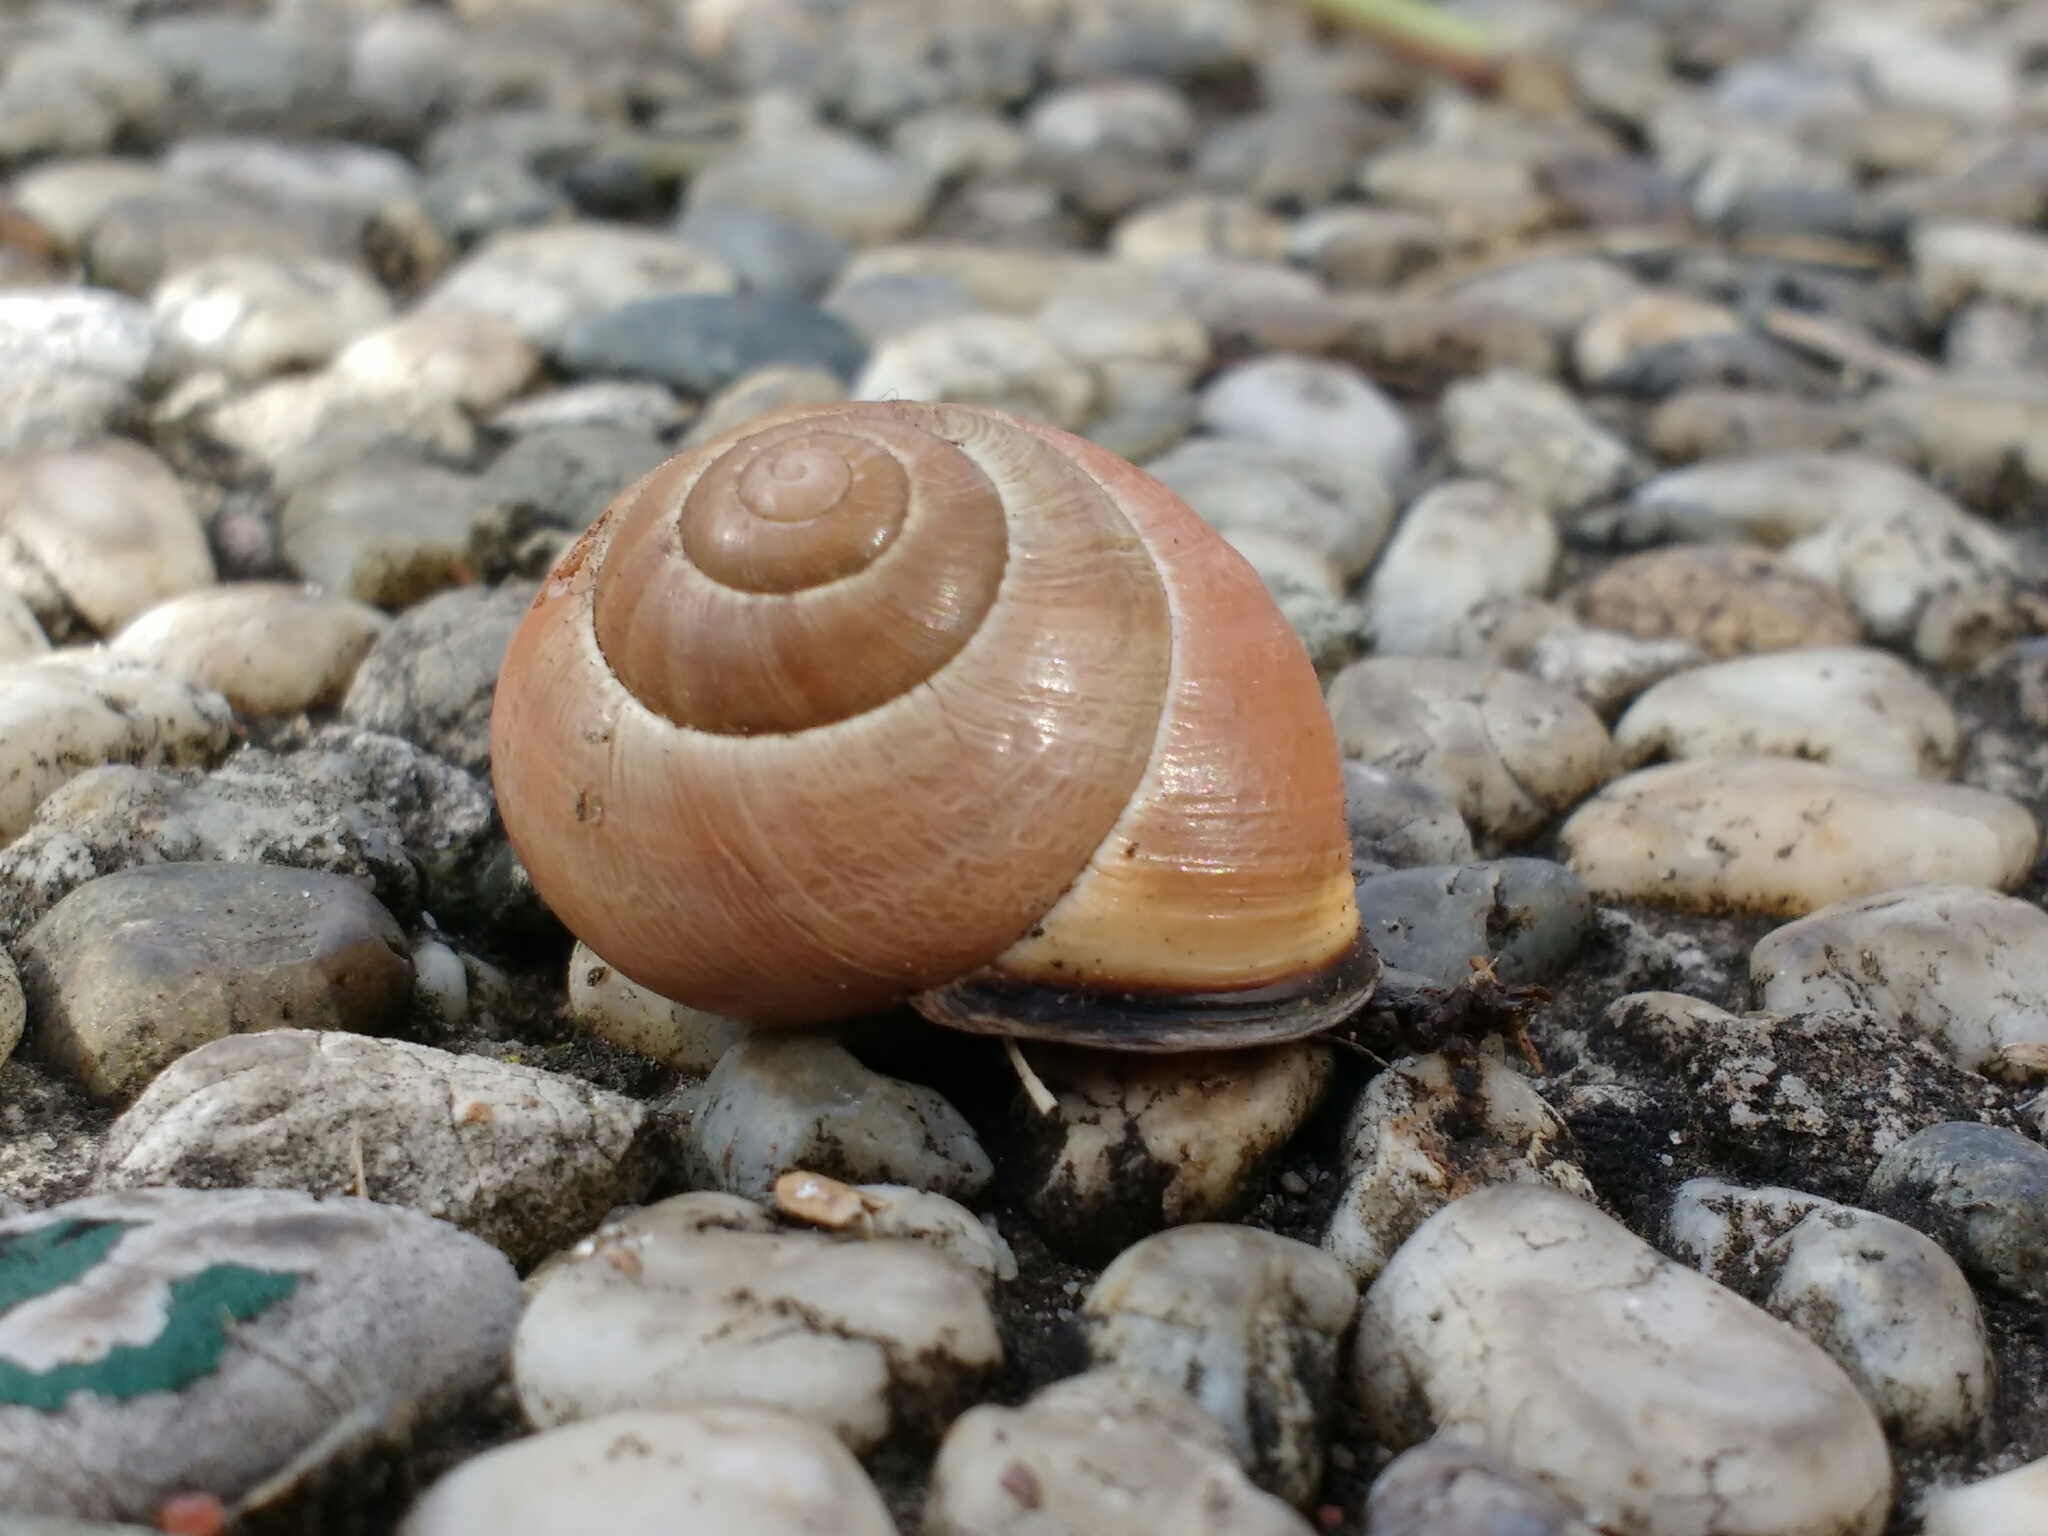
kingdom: Animalia
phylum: Mollusca
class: Gastropoda
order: Stylommatophora
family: Helicidae
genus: Cepaea
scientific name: Cepaea nemoralis
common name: Grovesnail
